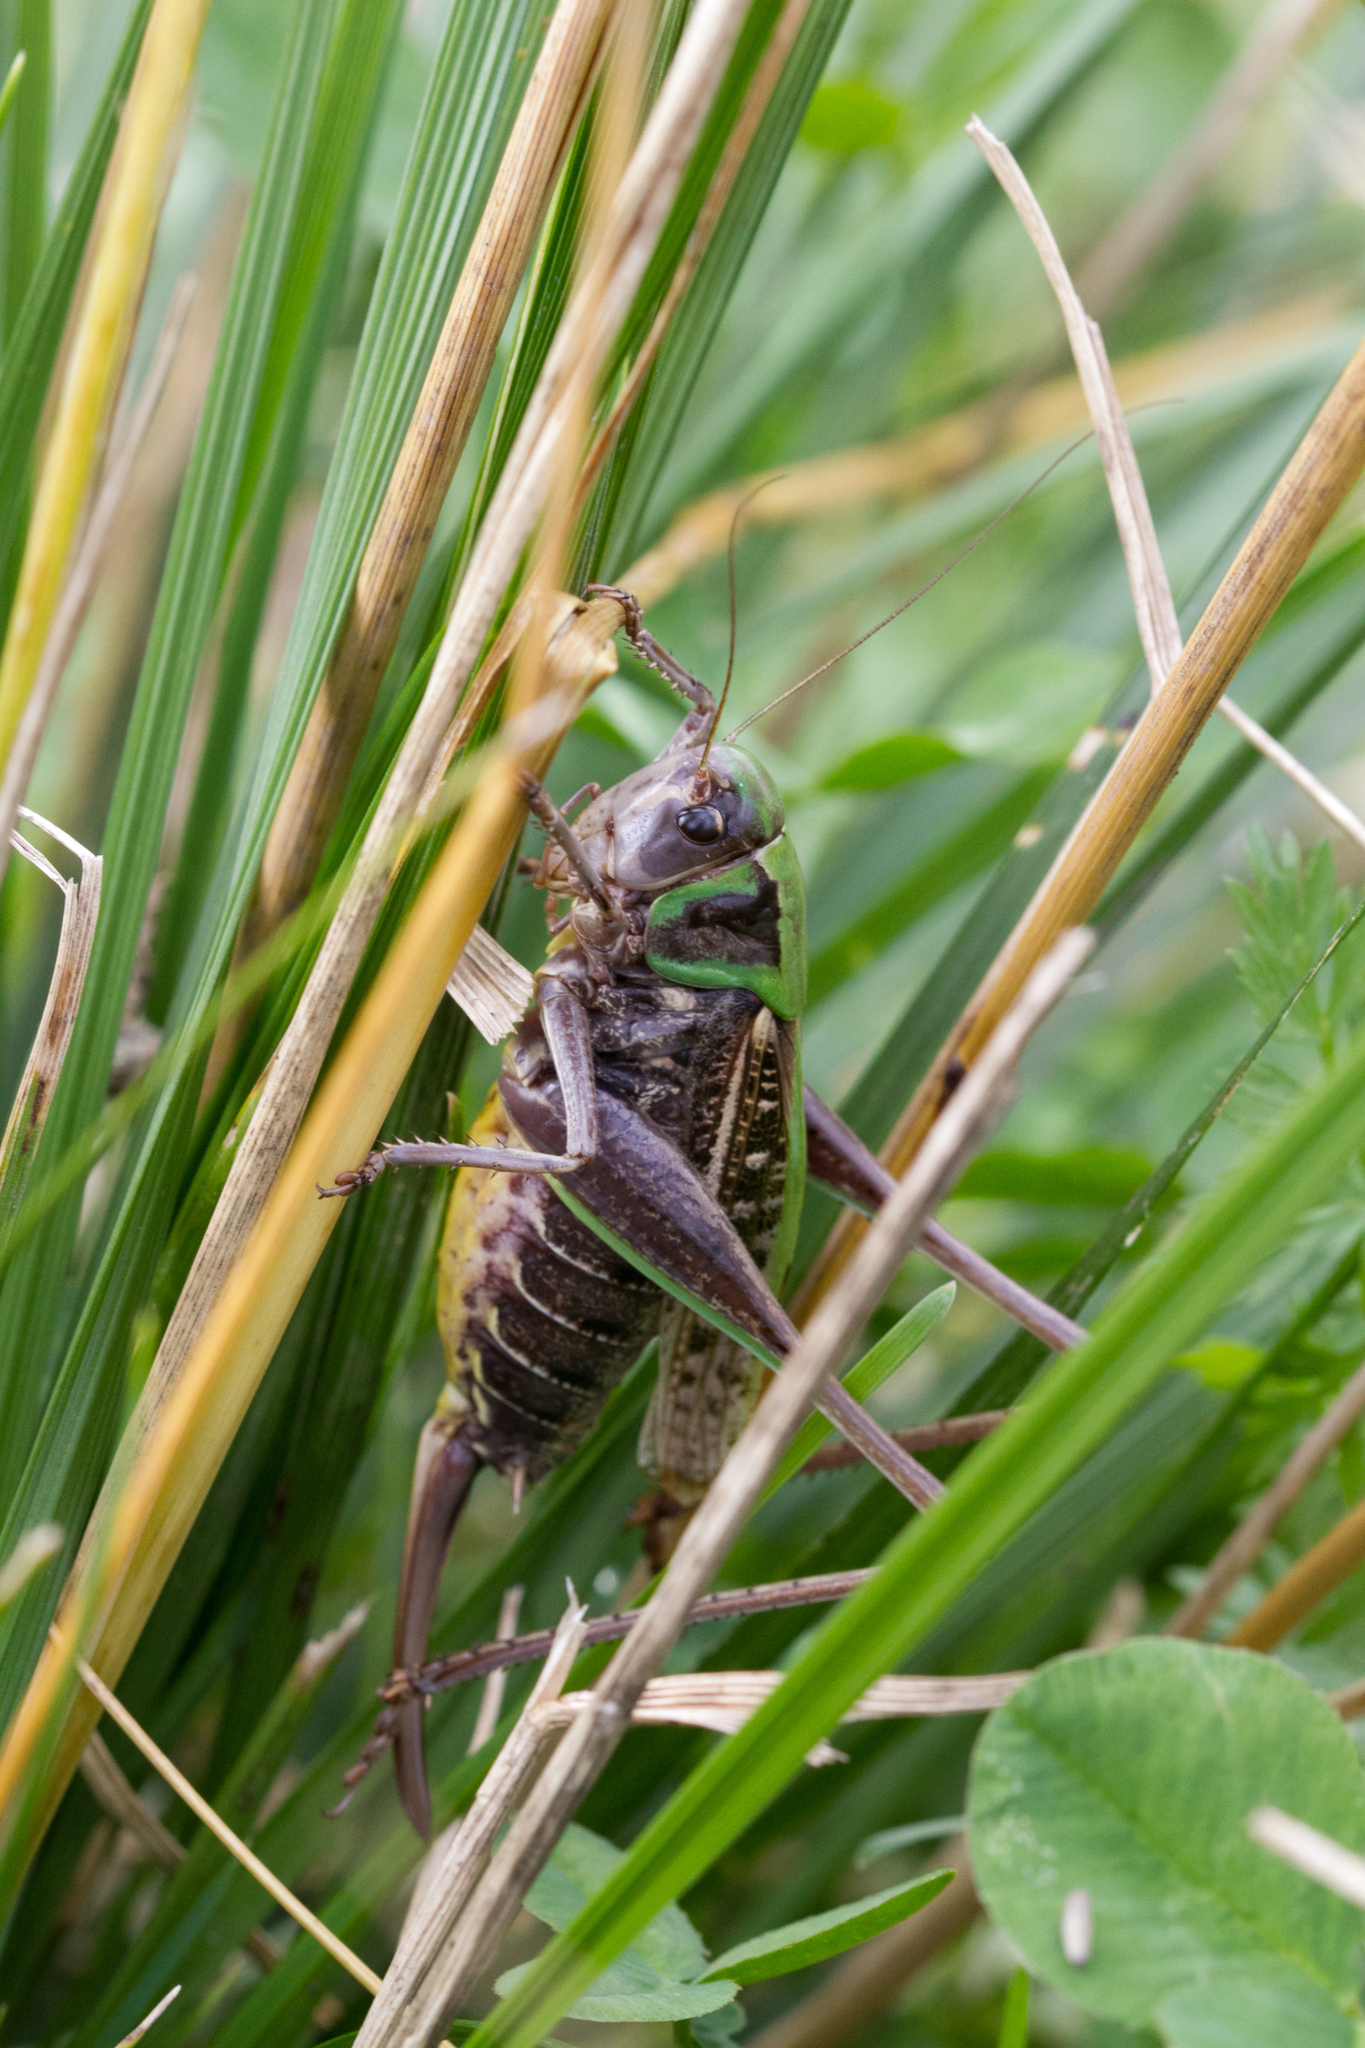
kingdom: Animalia
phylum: Arthropoda
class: Insecta
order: Orthoptera
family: Tettigoniidae
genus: Decticus
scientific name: Decticus verrucivorus
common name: Wart-biter
